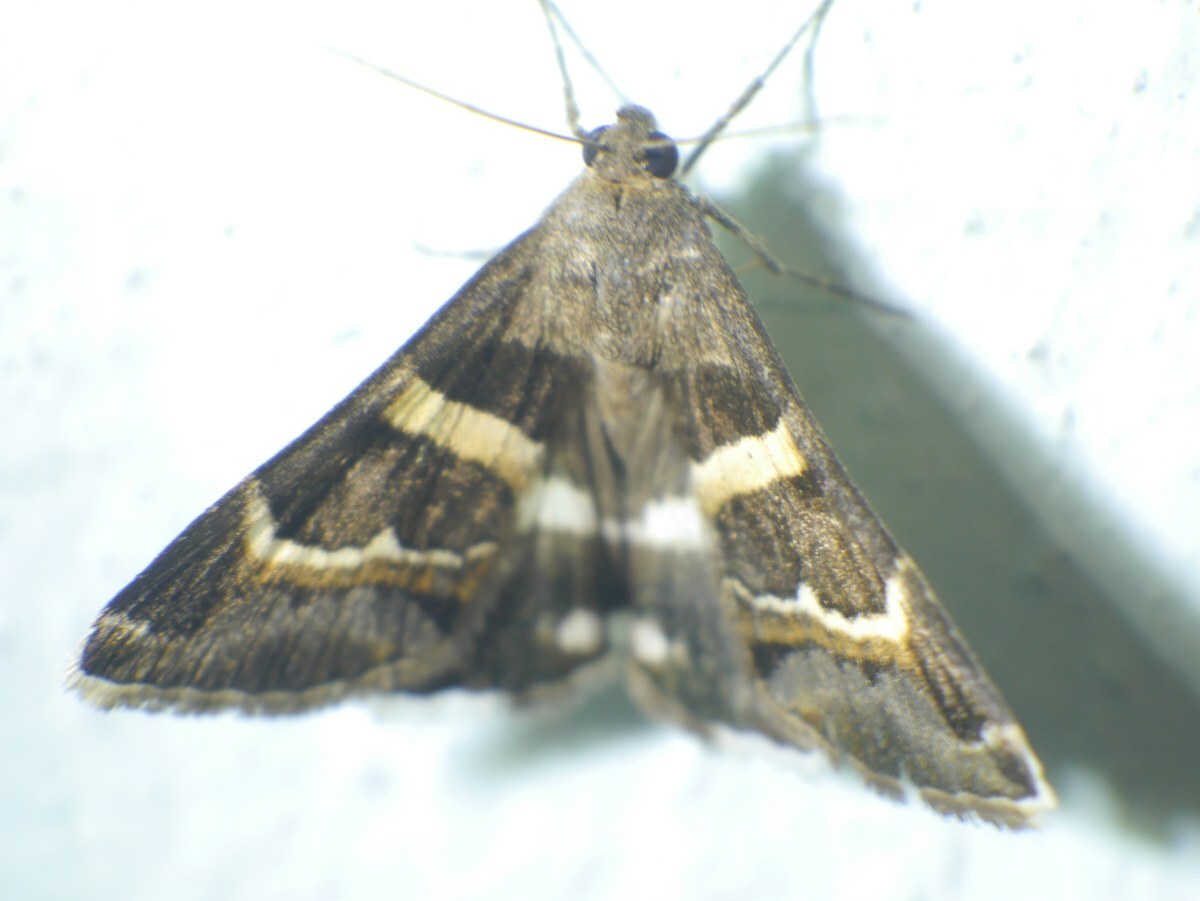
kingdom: Animalia
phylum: Arthropoda
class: Insecta
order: Lepidoptera
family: Erebidae
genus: Grammodes
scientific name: Grammodes stolida
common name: Geometrician
